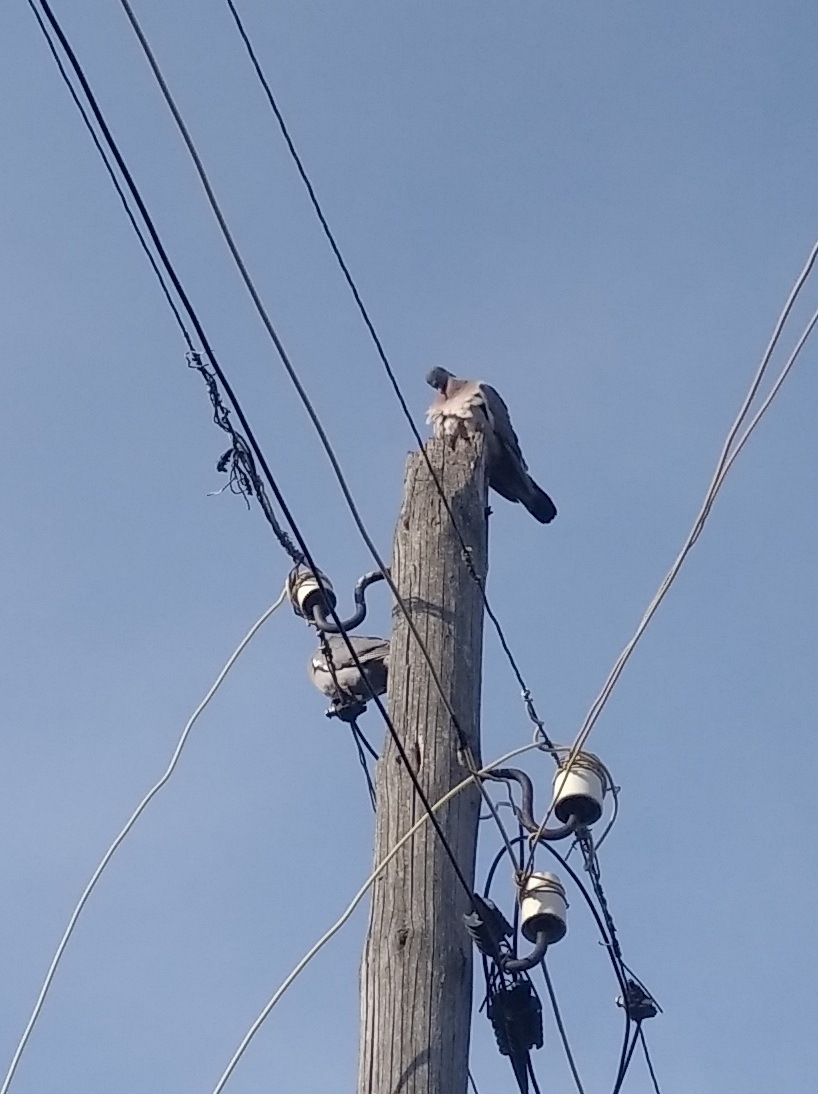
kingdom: Animalia
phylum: Chordata
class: Aves
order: Columbiformes
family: Columbidae
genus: Columba
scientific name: Columba palumbus
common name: Common wood pigeon
